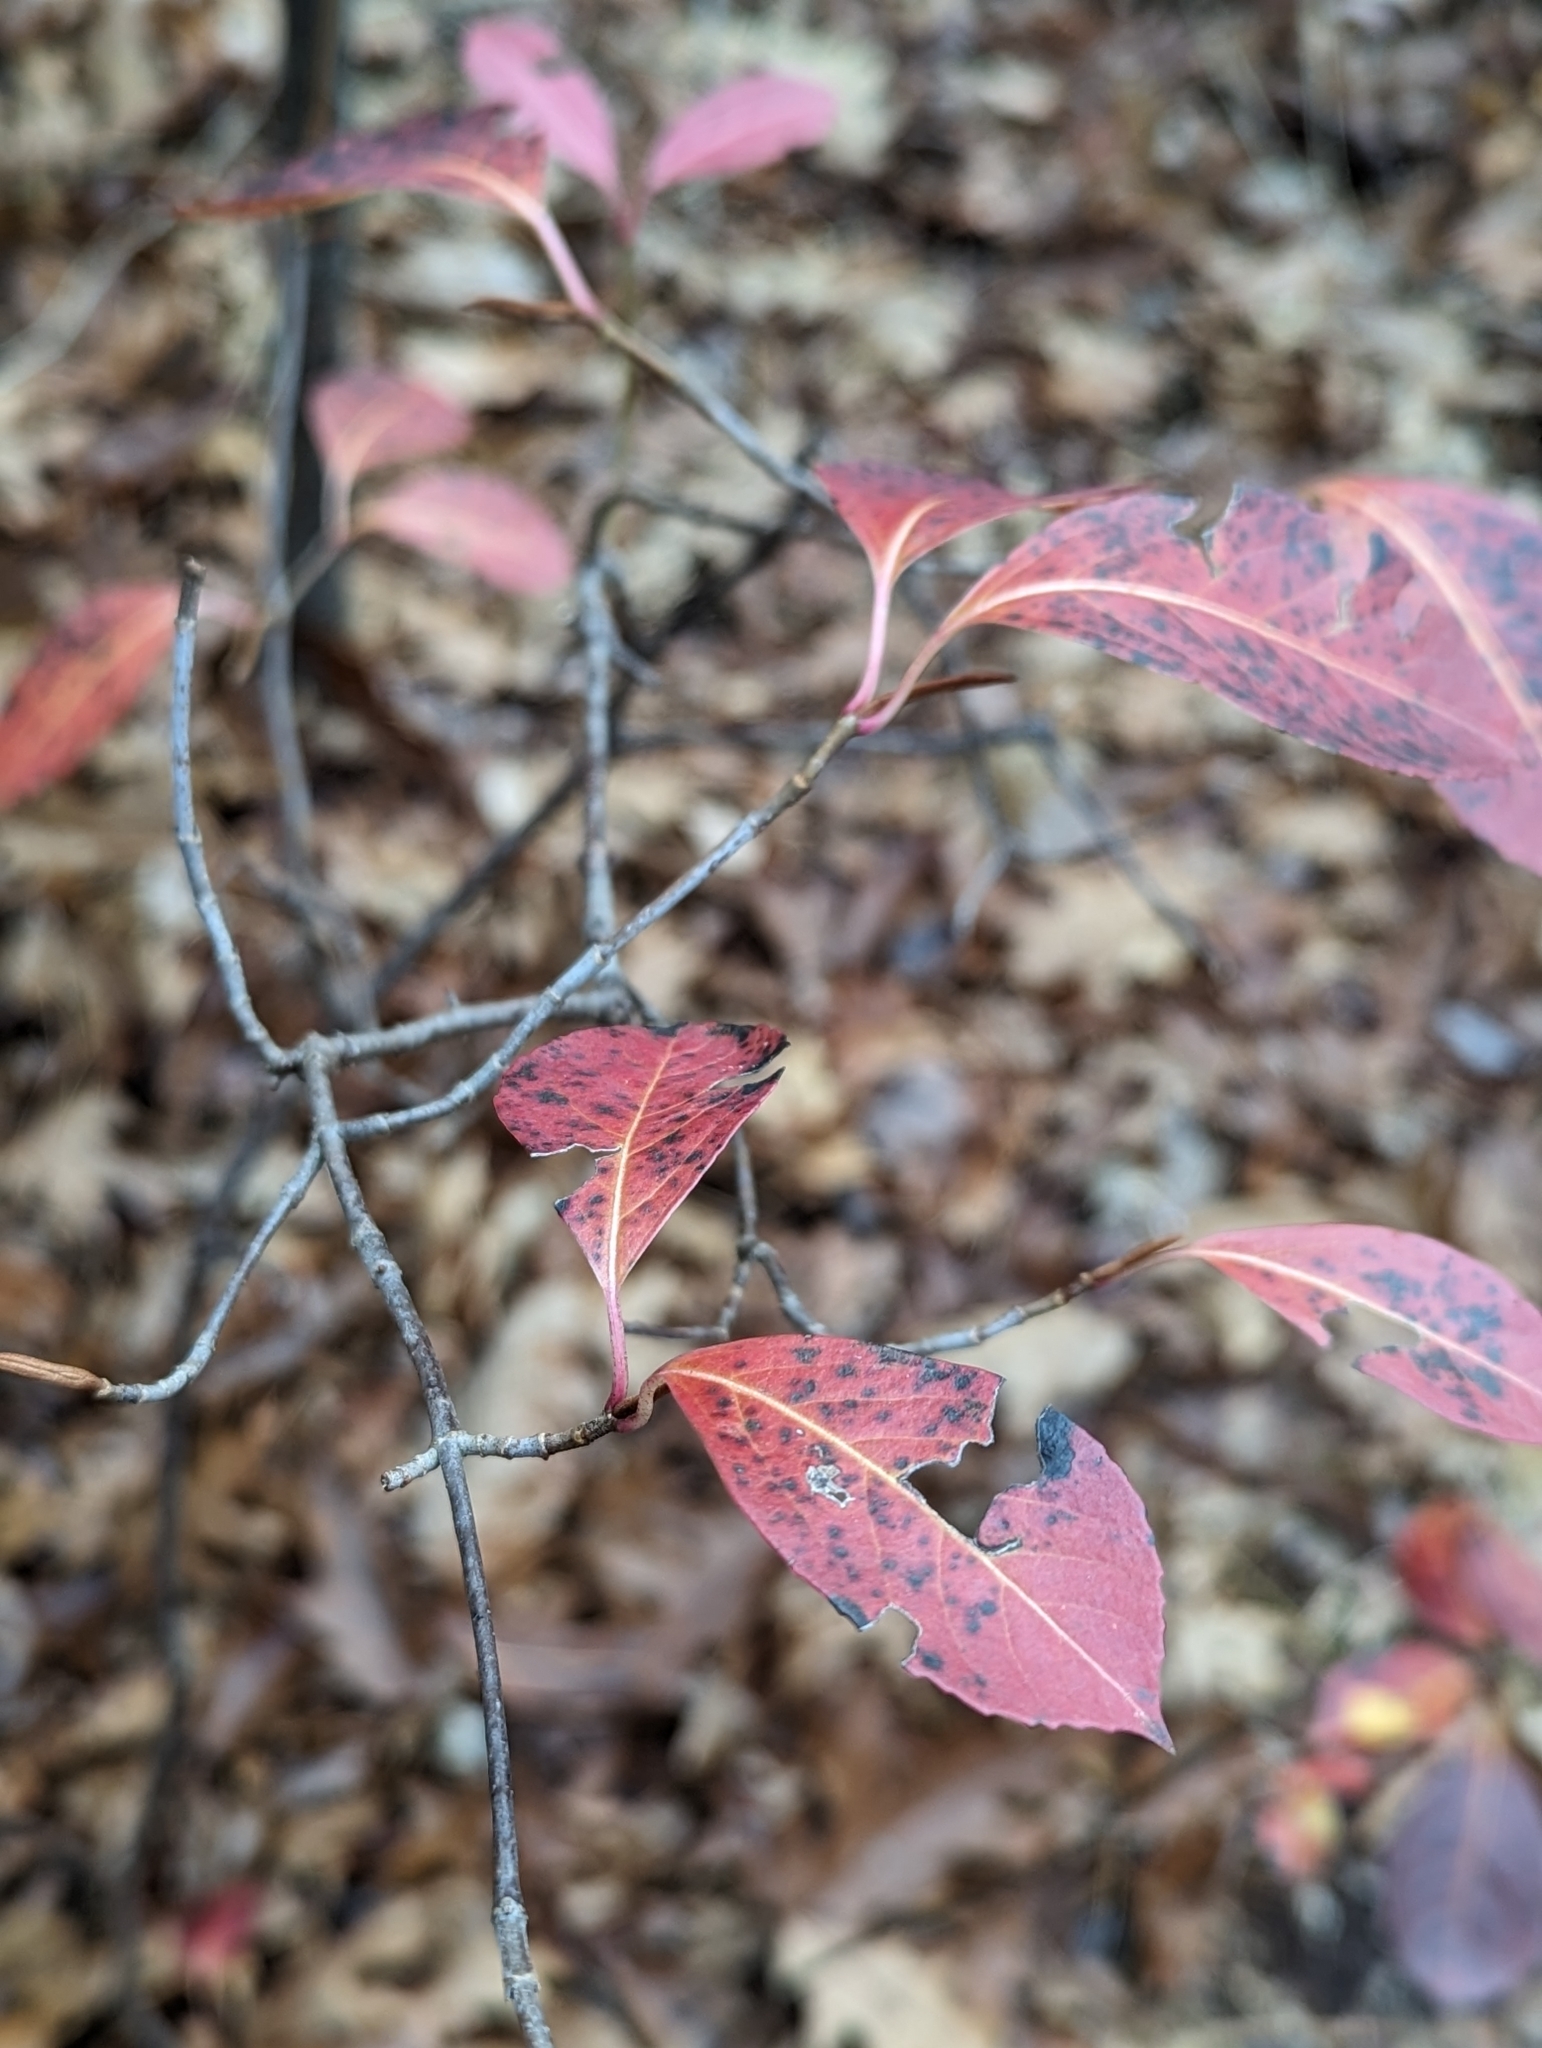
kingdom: Plantae
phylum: Tracheophyta
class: Magnoliopsida
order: Dipsacales
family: Viburnaceae
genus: Viburnum
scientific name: Viburnum cassinoides
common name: Swamp haw
